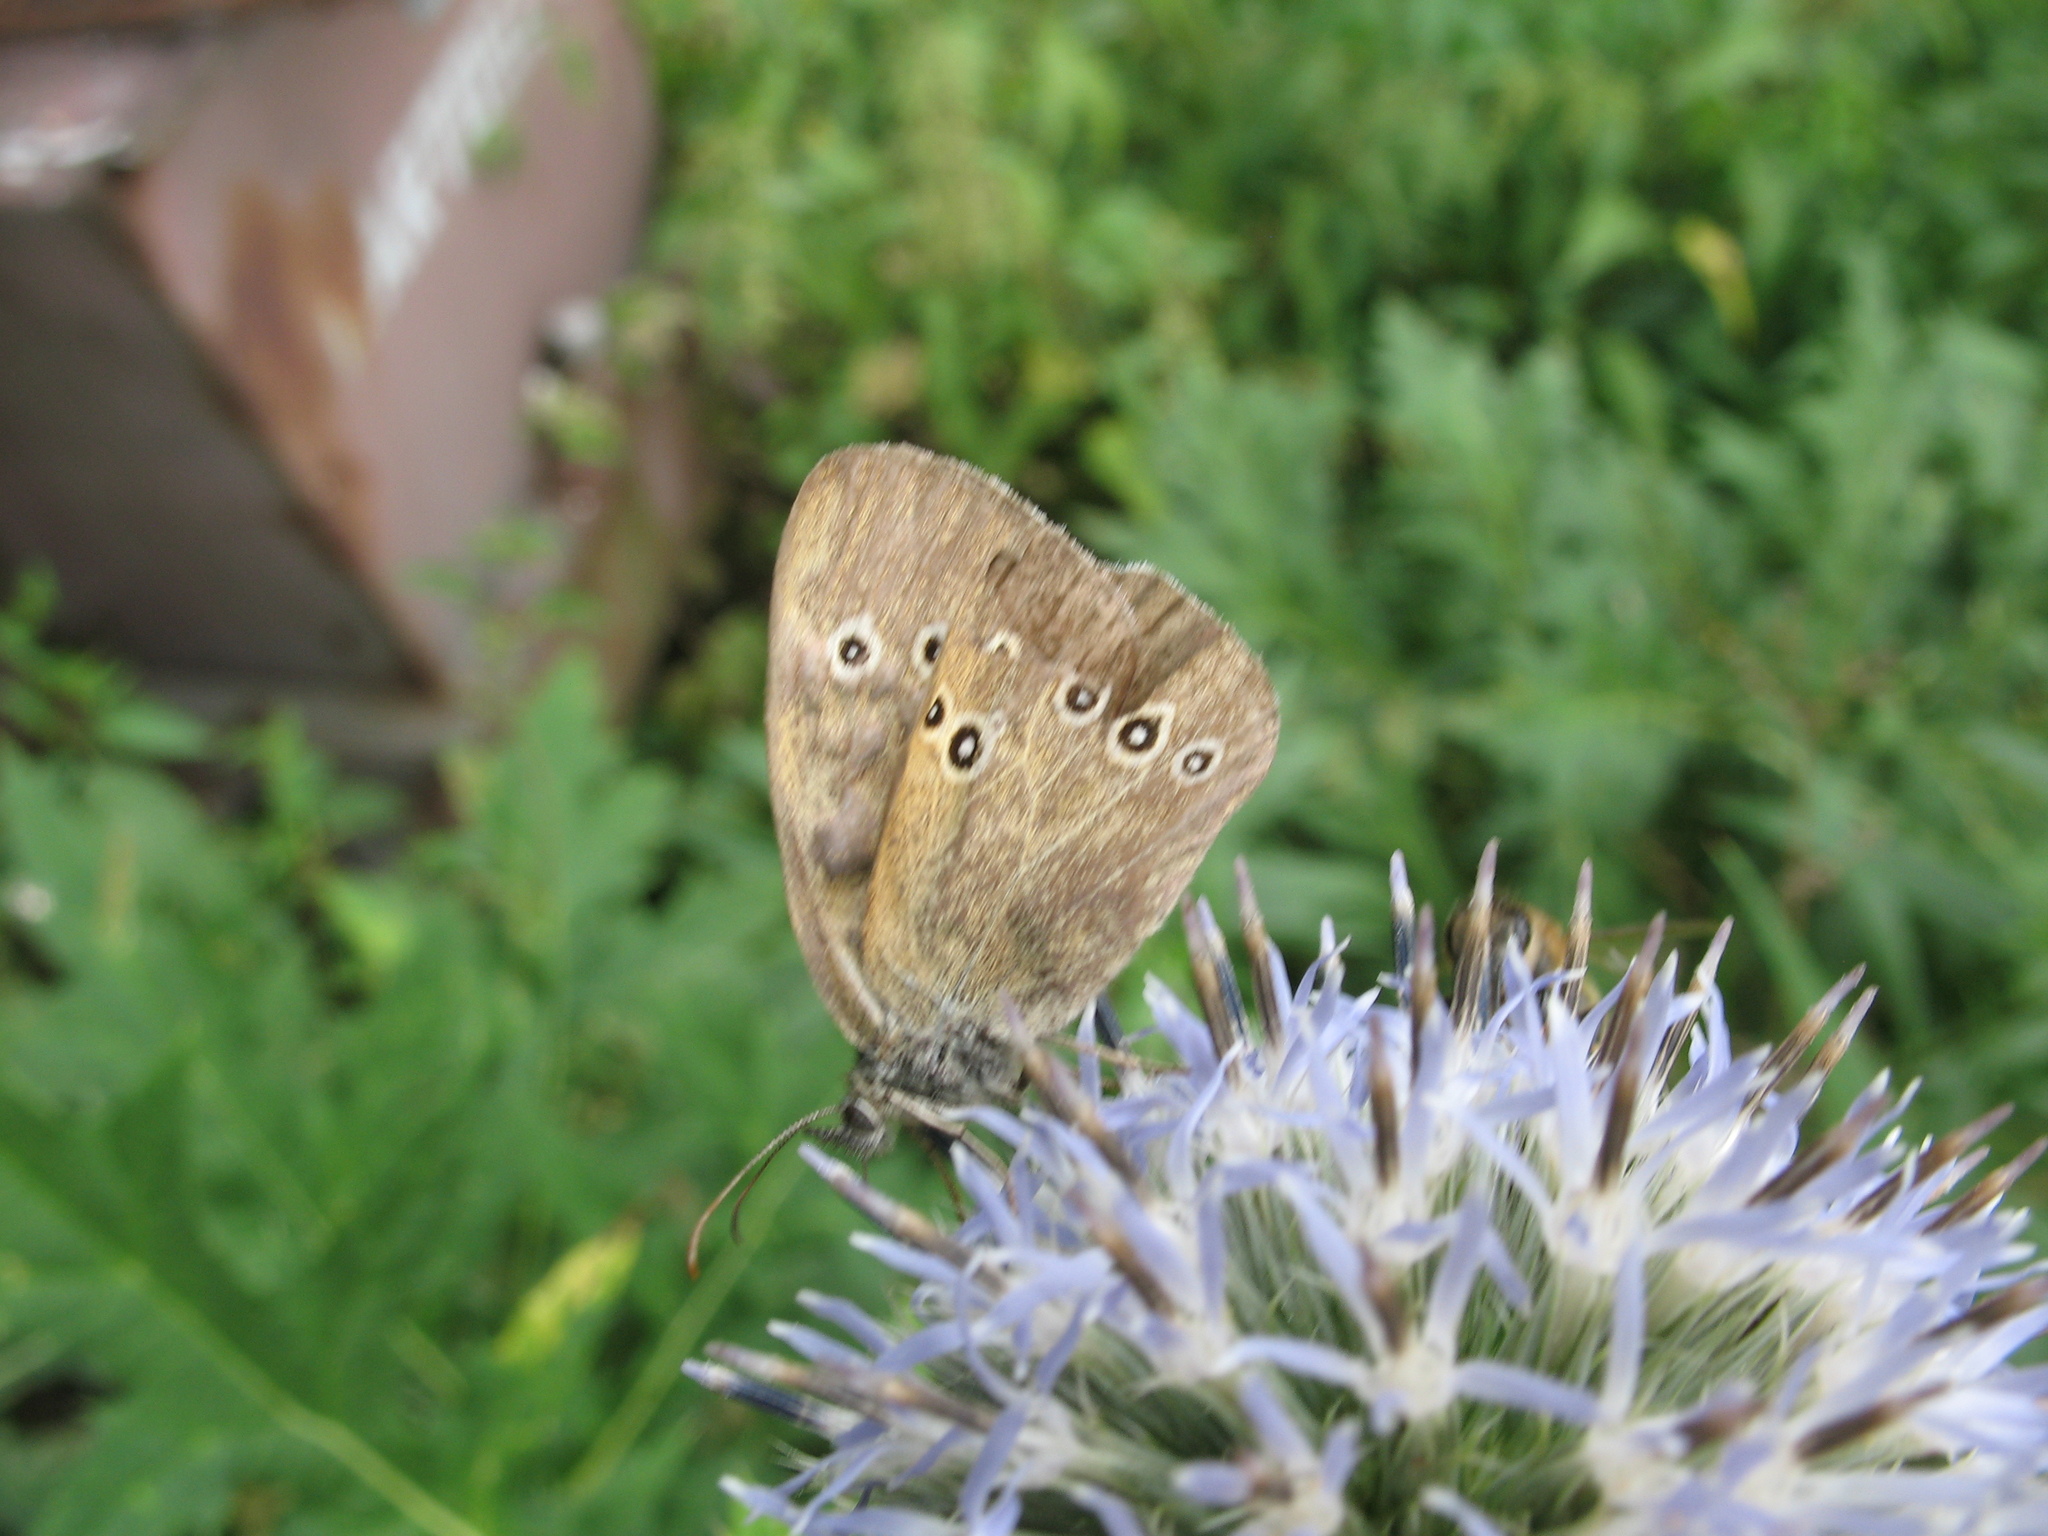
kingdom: Animalia
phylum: Arthropoda
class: Insecta
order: Lepidoptera
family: Nymphalidae
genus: Aphantopus
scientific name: Aphantopus hyperantus
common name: Ringlet
